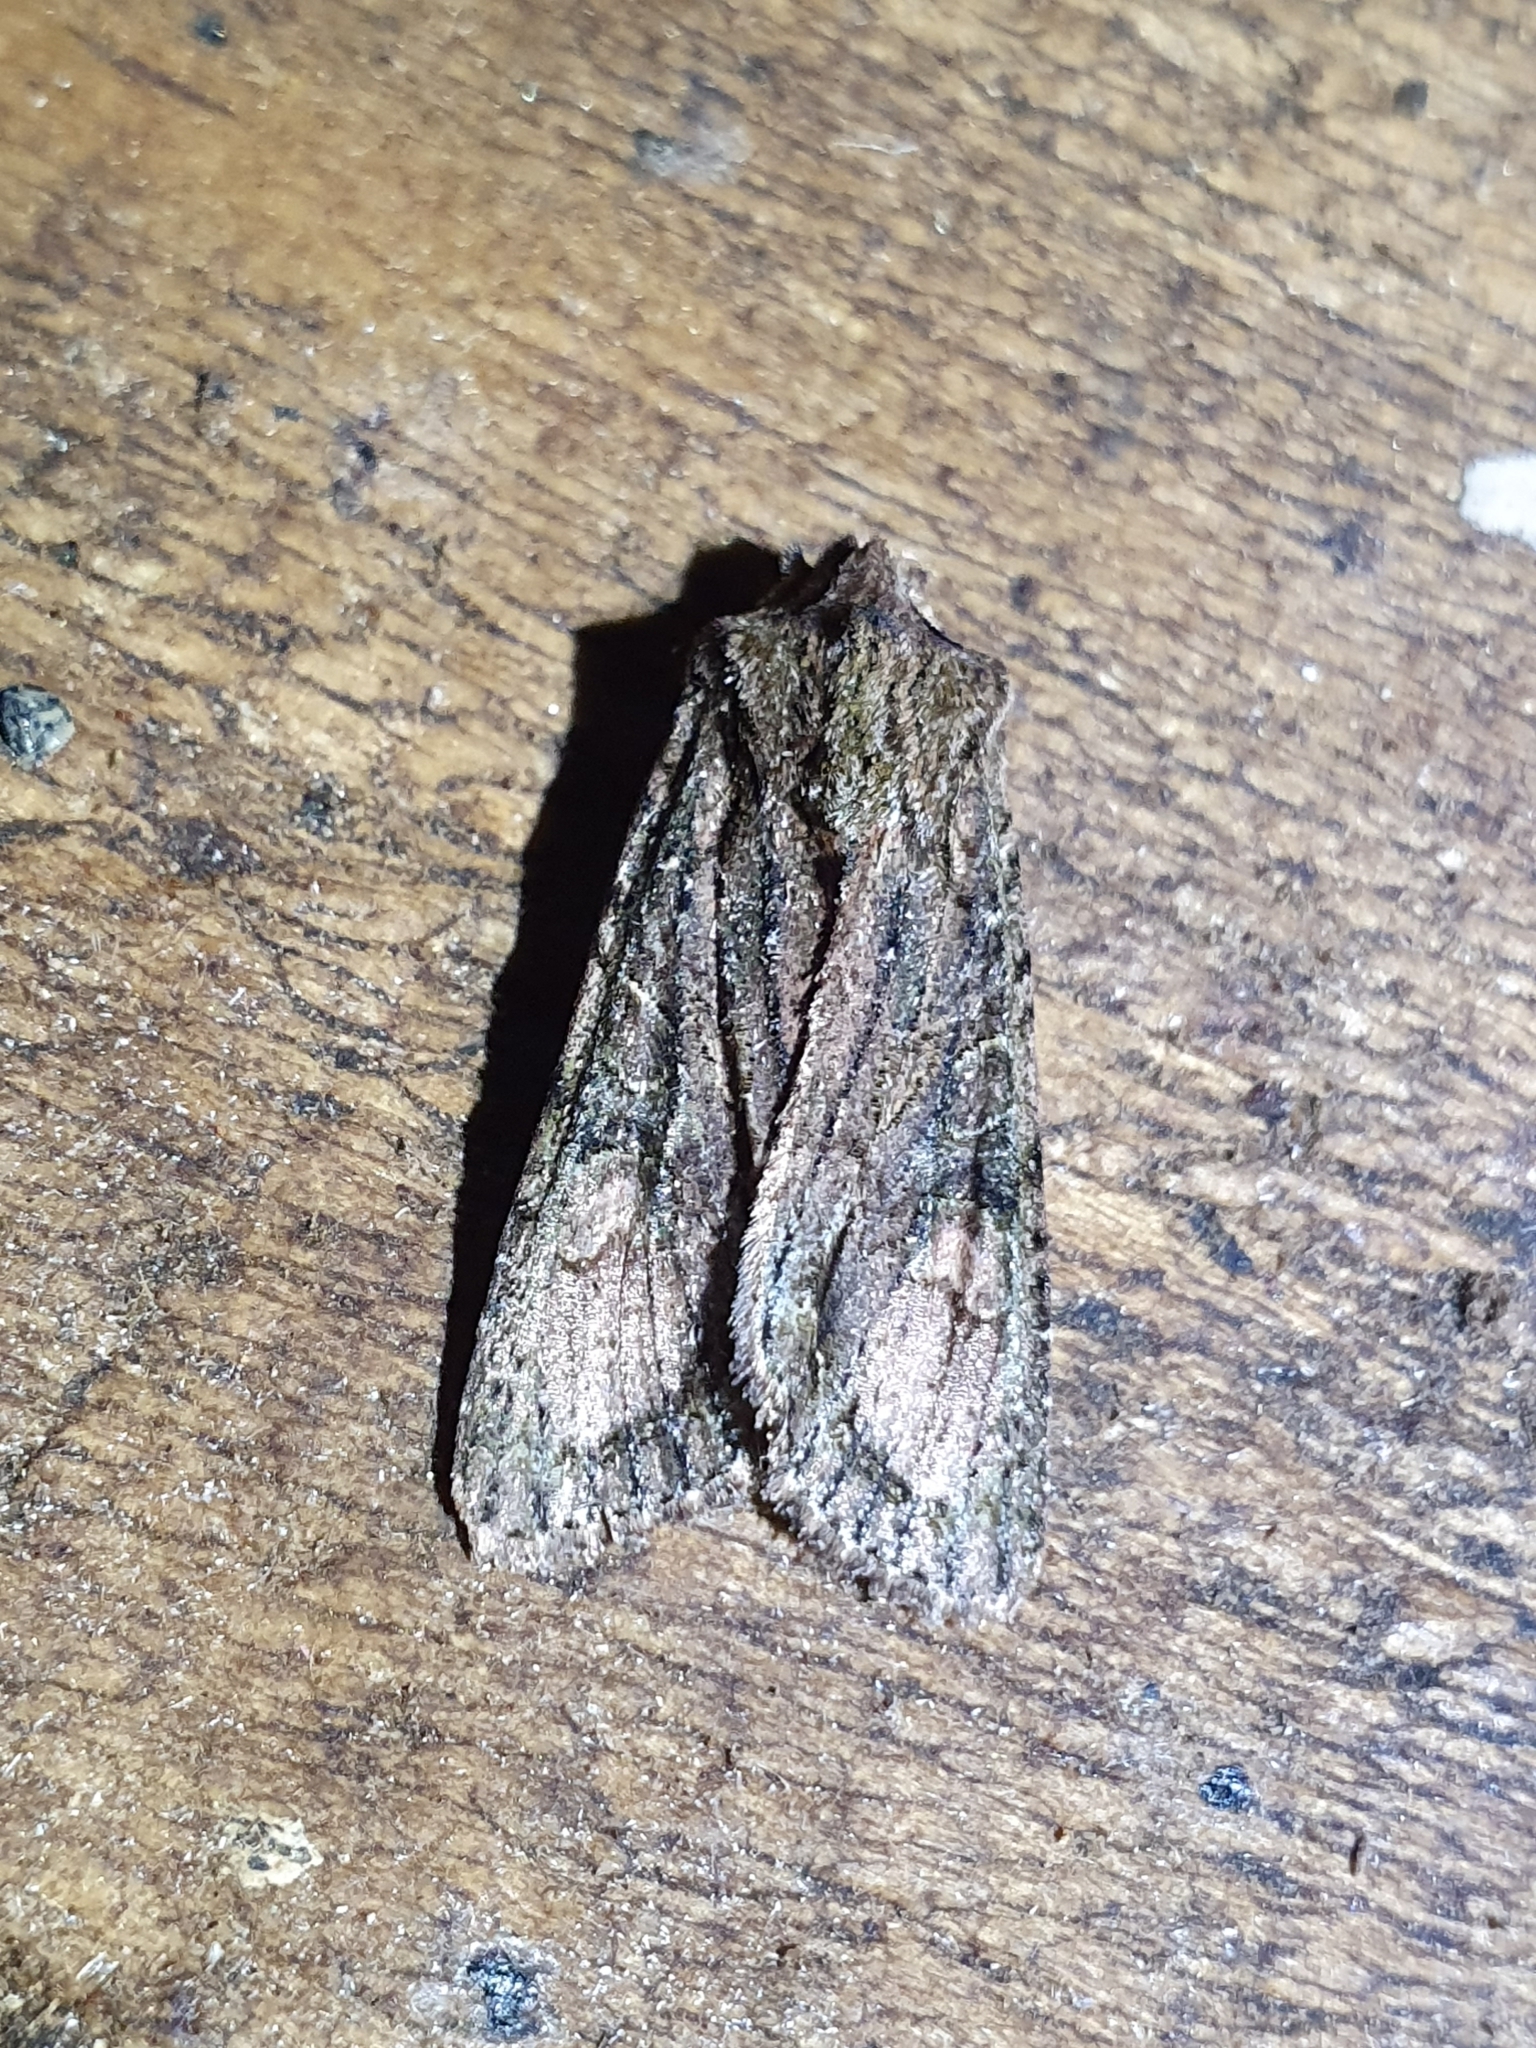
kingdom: Animalia
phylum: Arthropoda
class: Insecta
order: Lepidoptera
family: Noctuidae
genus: Ichneutica
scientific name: Ichneutica mutans
